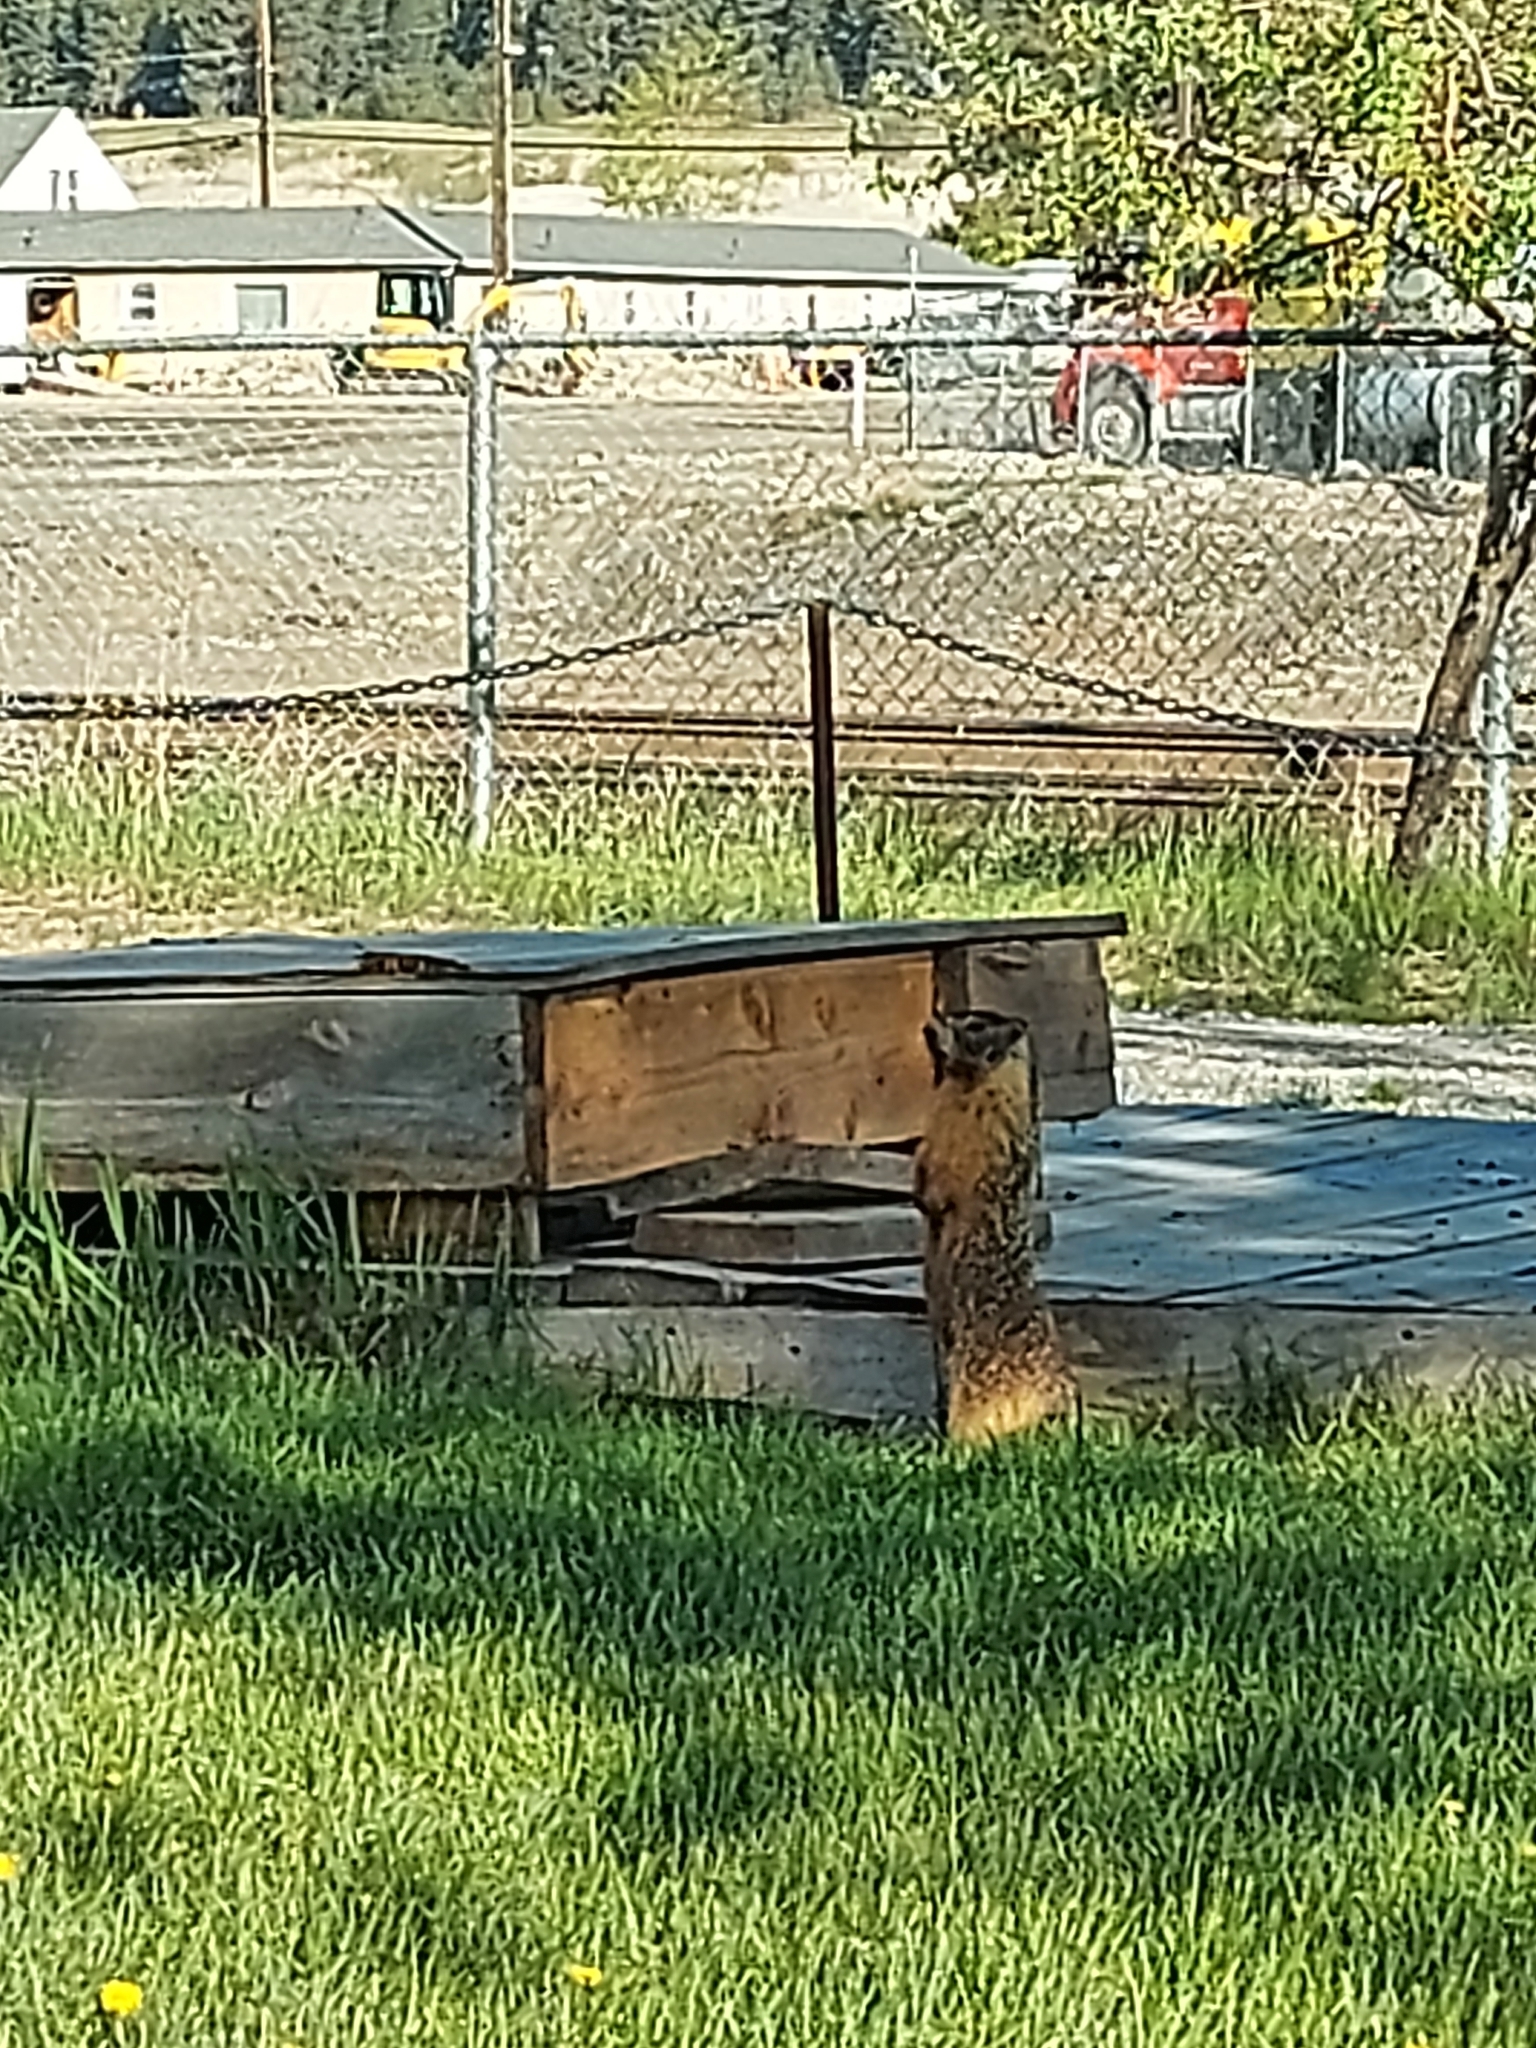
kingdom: Animalia
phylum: Chordata
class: Mammalia
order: Rodentia
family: Sciuridae
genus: Marmota
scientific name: Marmota flaviventris
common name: Yellow-bellied marmot
